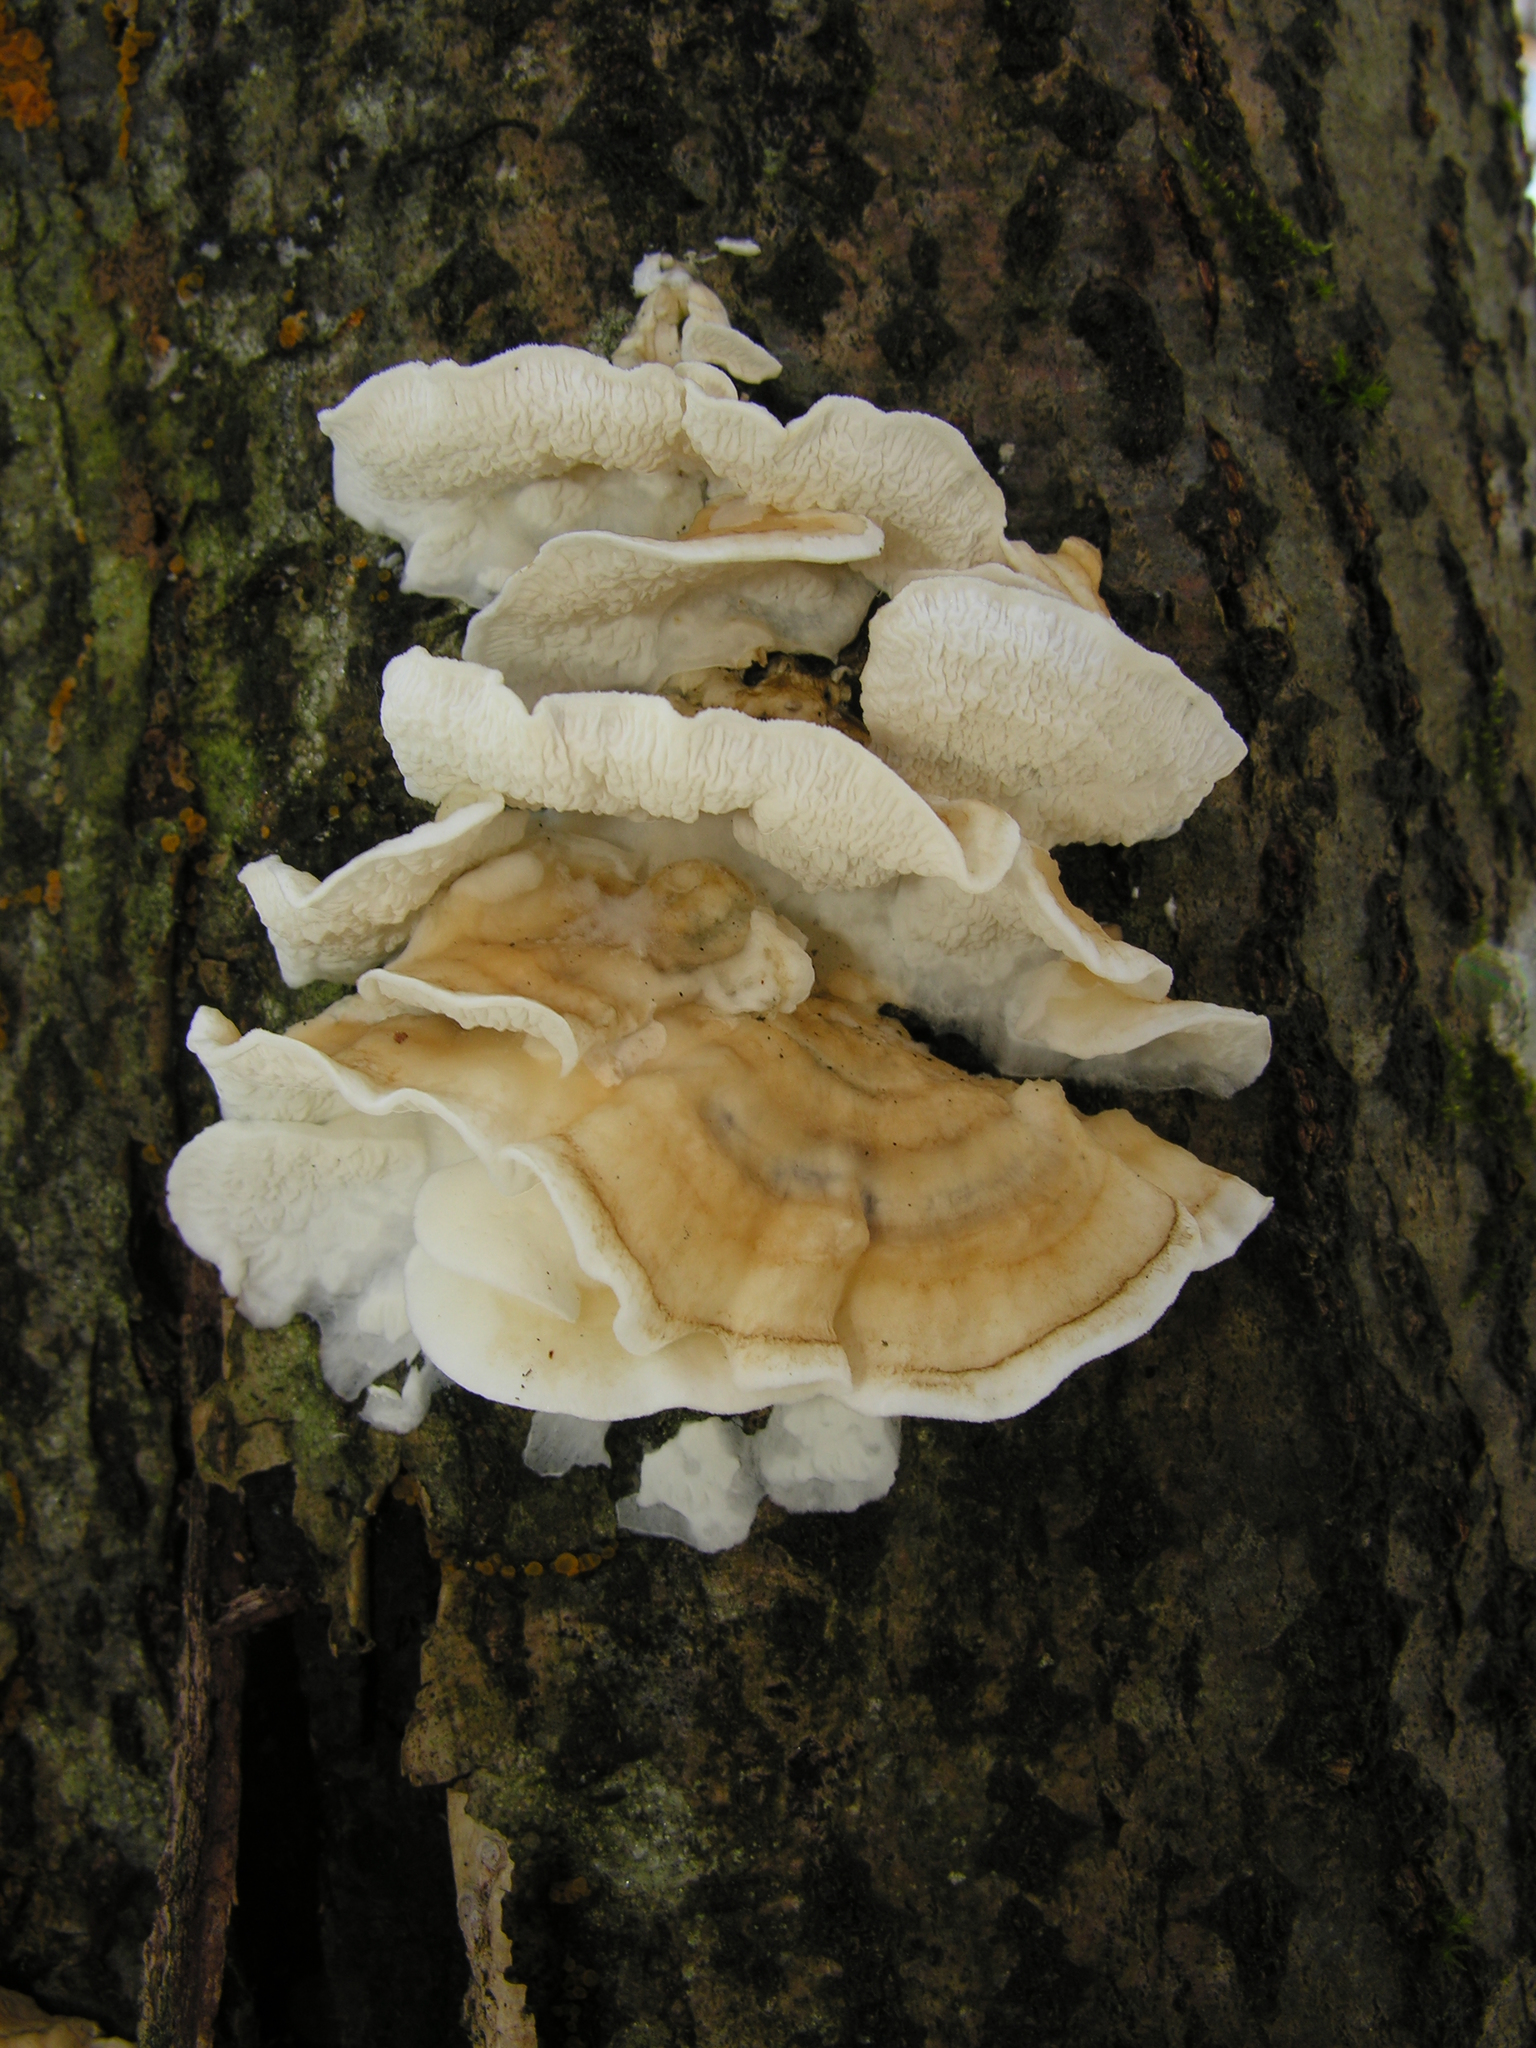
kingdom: Fungi
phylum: Basidiomycota
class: Agaricomycetes
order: Agaricales
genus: Plicatura
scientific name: Plicatura nivea
